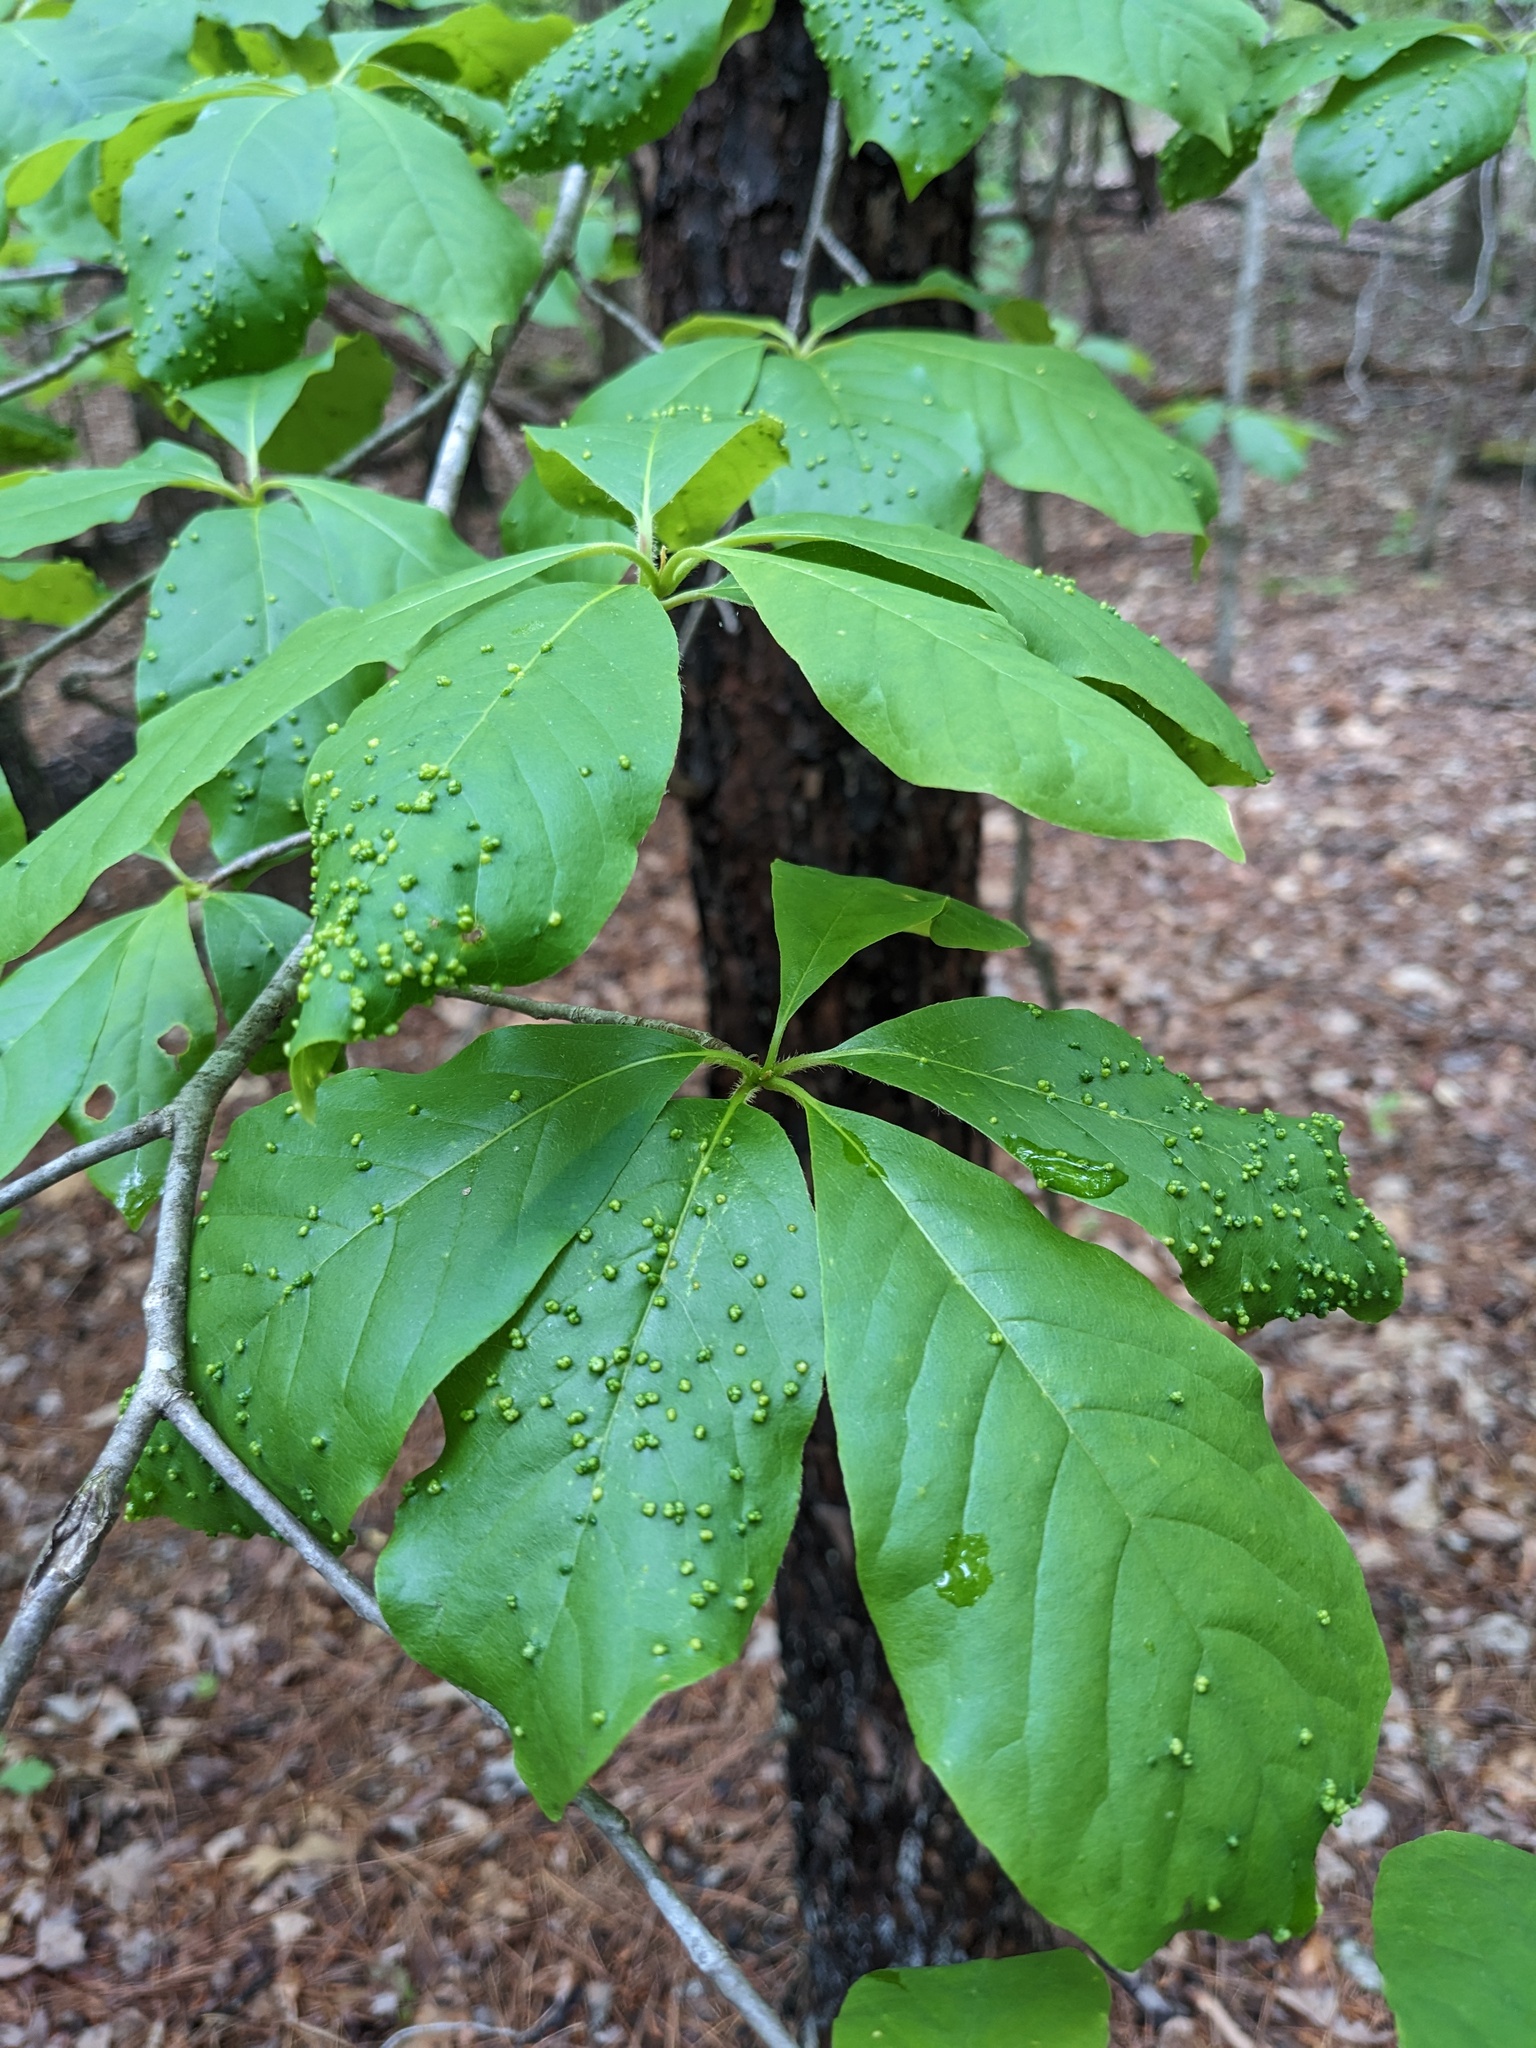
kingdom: Animalia
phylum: Arthropoda
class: Arachnida
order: Trombidiformes
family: Eriophyidae
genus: Aceria
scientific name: Aceria
